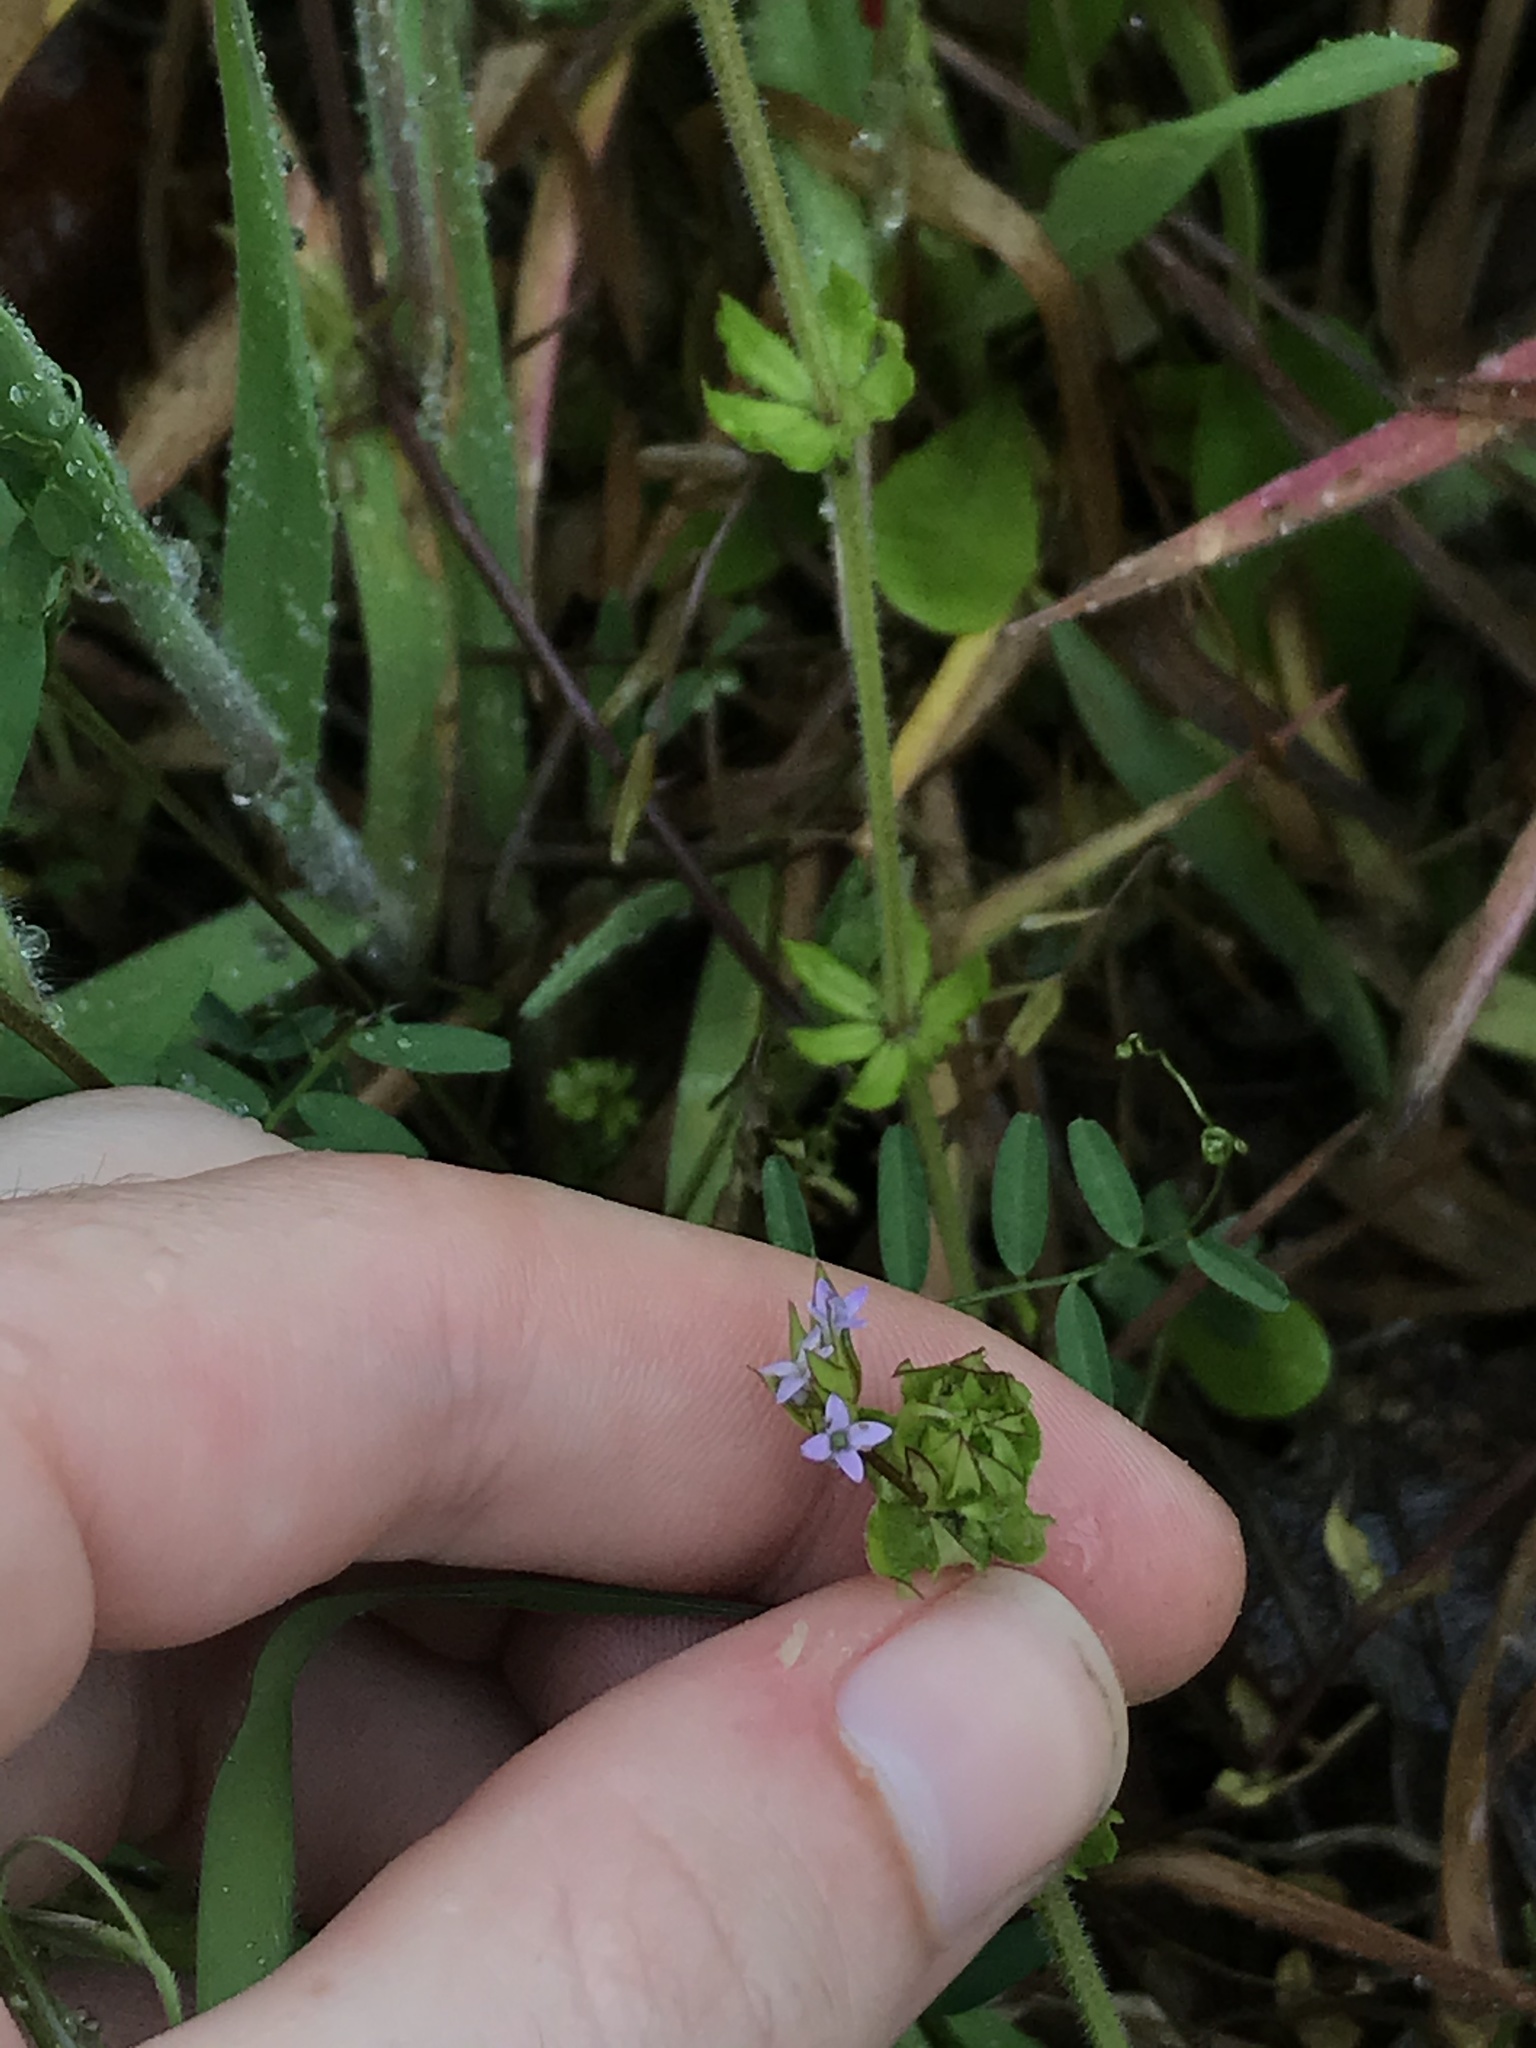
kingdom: Plantae
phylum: Tracheophyta
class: Magnoliopsida
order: Gentianales
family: Rubiaceae
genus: Sherardia
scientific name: Sherardia arvensis
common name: Field madder
